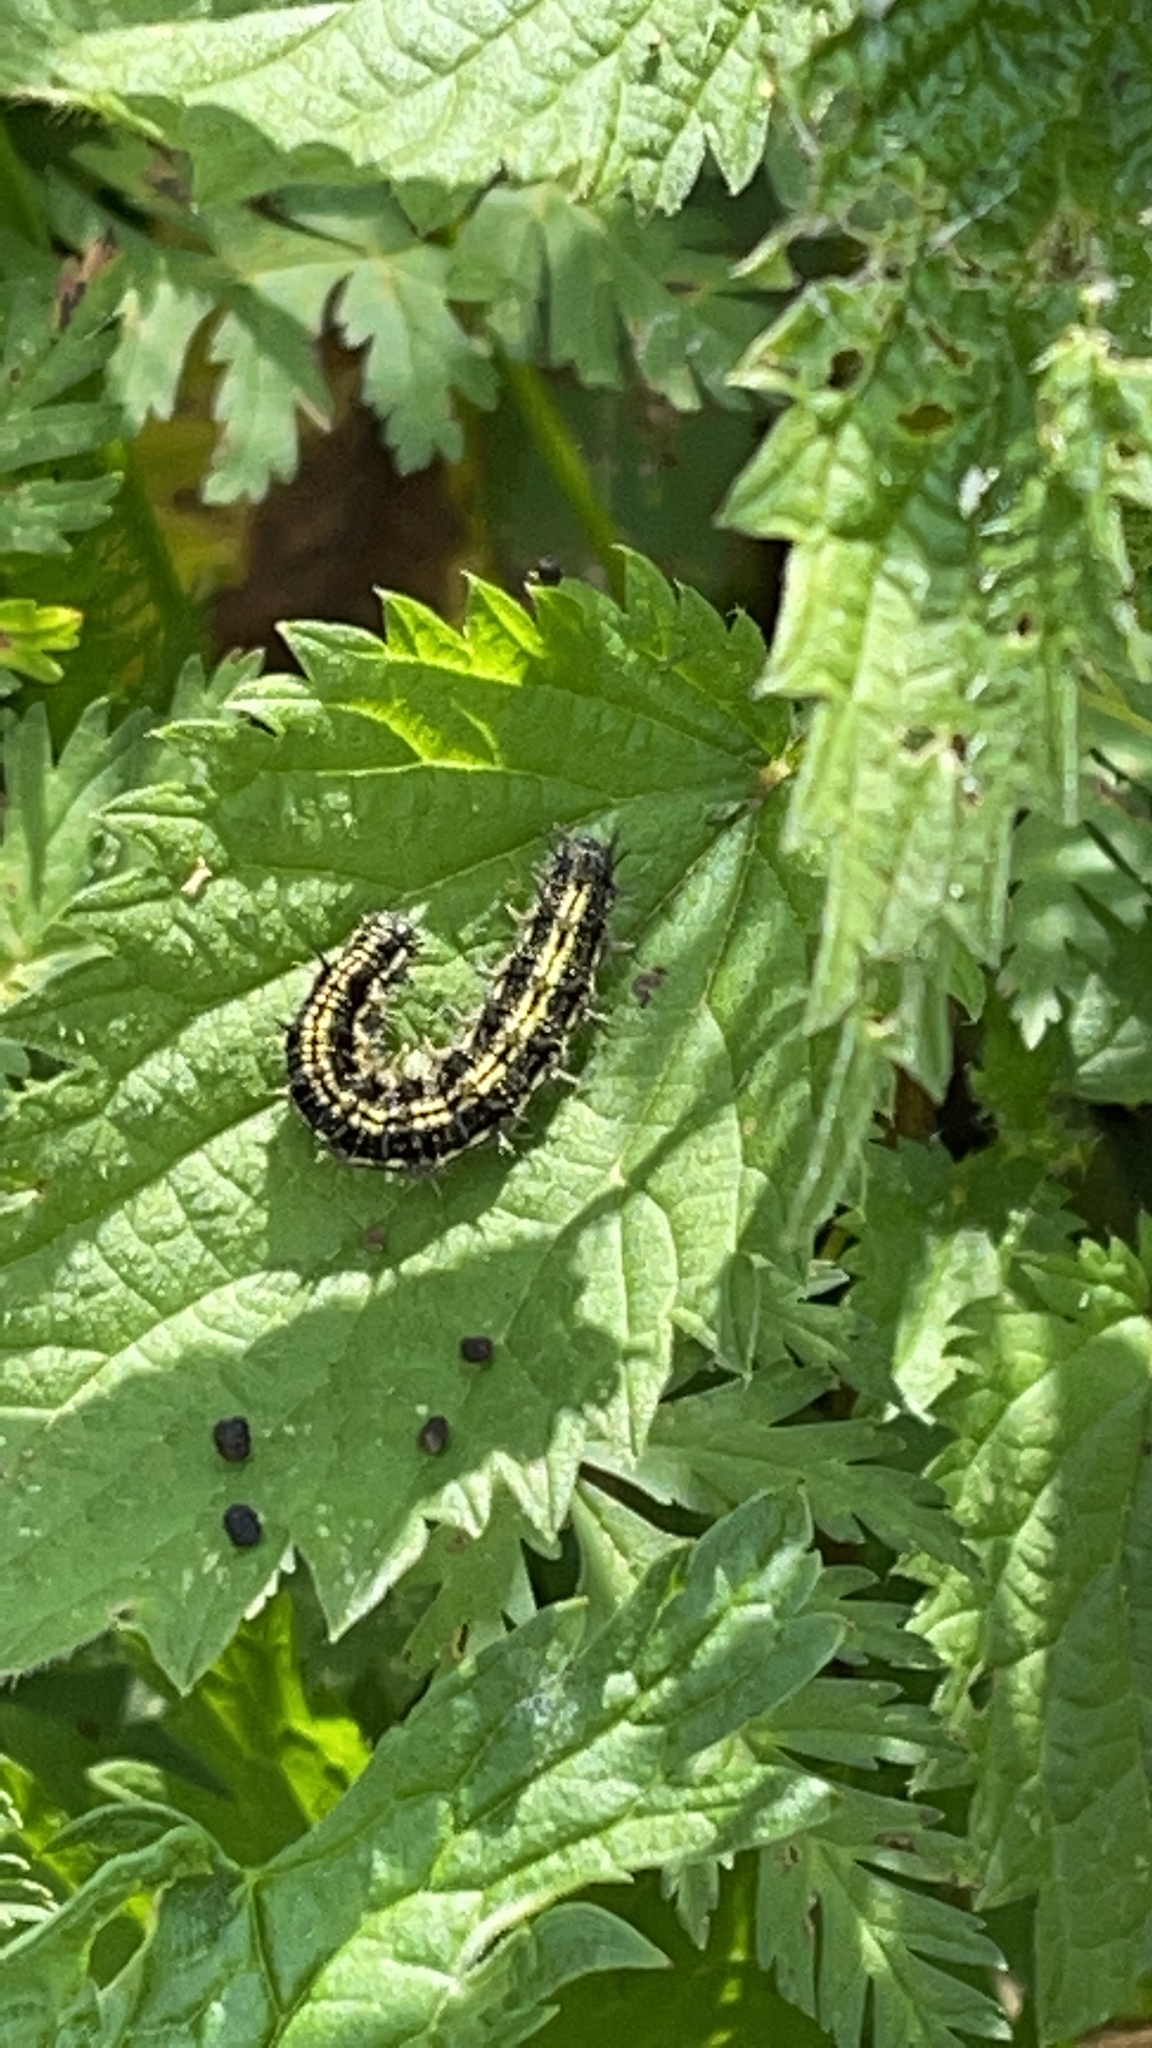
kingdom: Animalia
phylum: Arthropoda
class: Insecta
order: Lepidoptera
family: Nymphalidae
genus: Aglais
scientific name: Aglais urticae
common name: Small tortoiseshell
